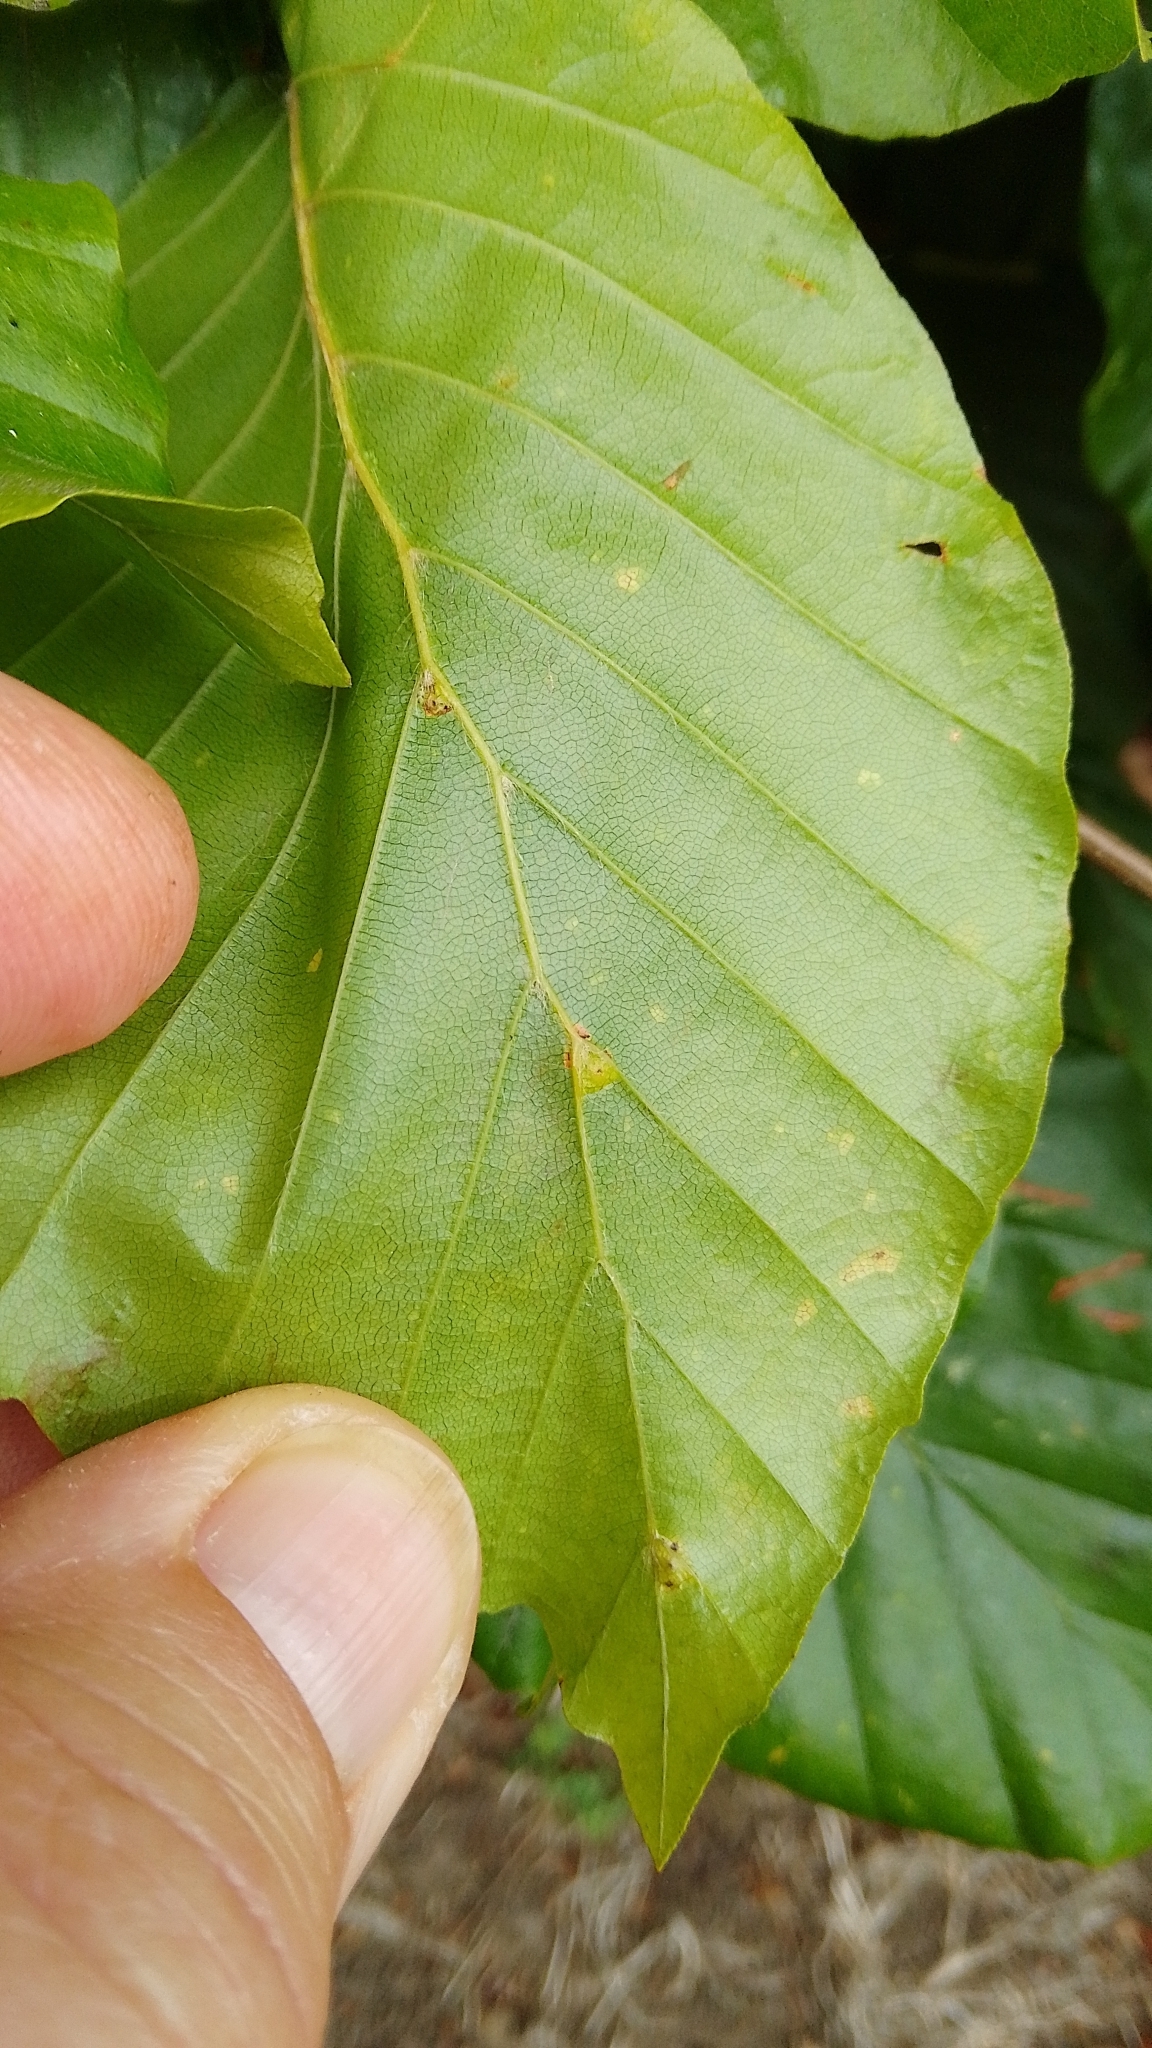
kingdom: Animalia
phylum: Arthropoda
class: Insecta
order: Diptera
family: Cecidomyiidae
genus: Hartigiola
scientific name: Hartigiola annulipes
